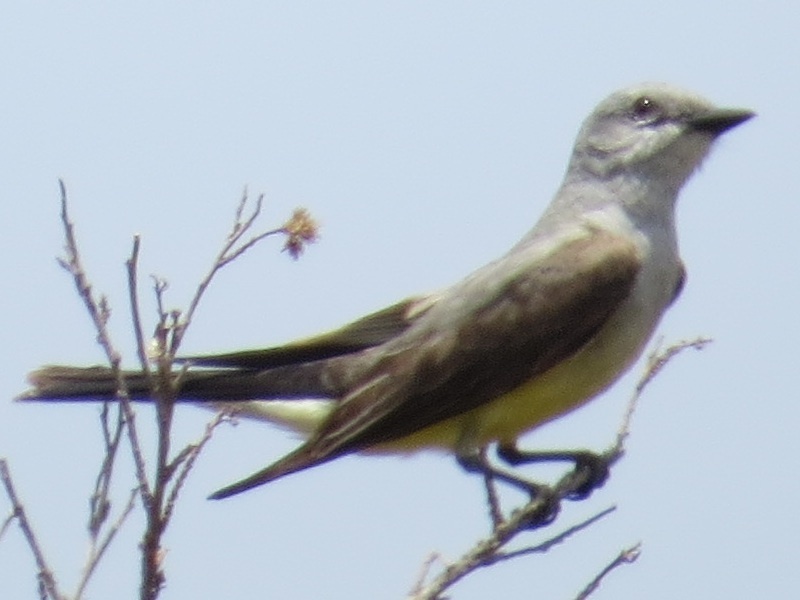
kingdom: Animalia
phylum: Chordata
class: Aves
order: Passeriformes
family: Tyrannidae
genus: Tyrannus
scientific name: Tyrannus verticalis
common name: Western kingbird
